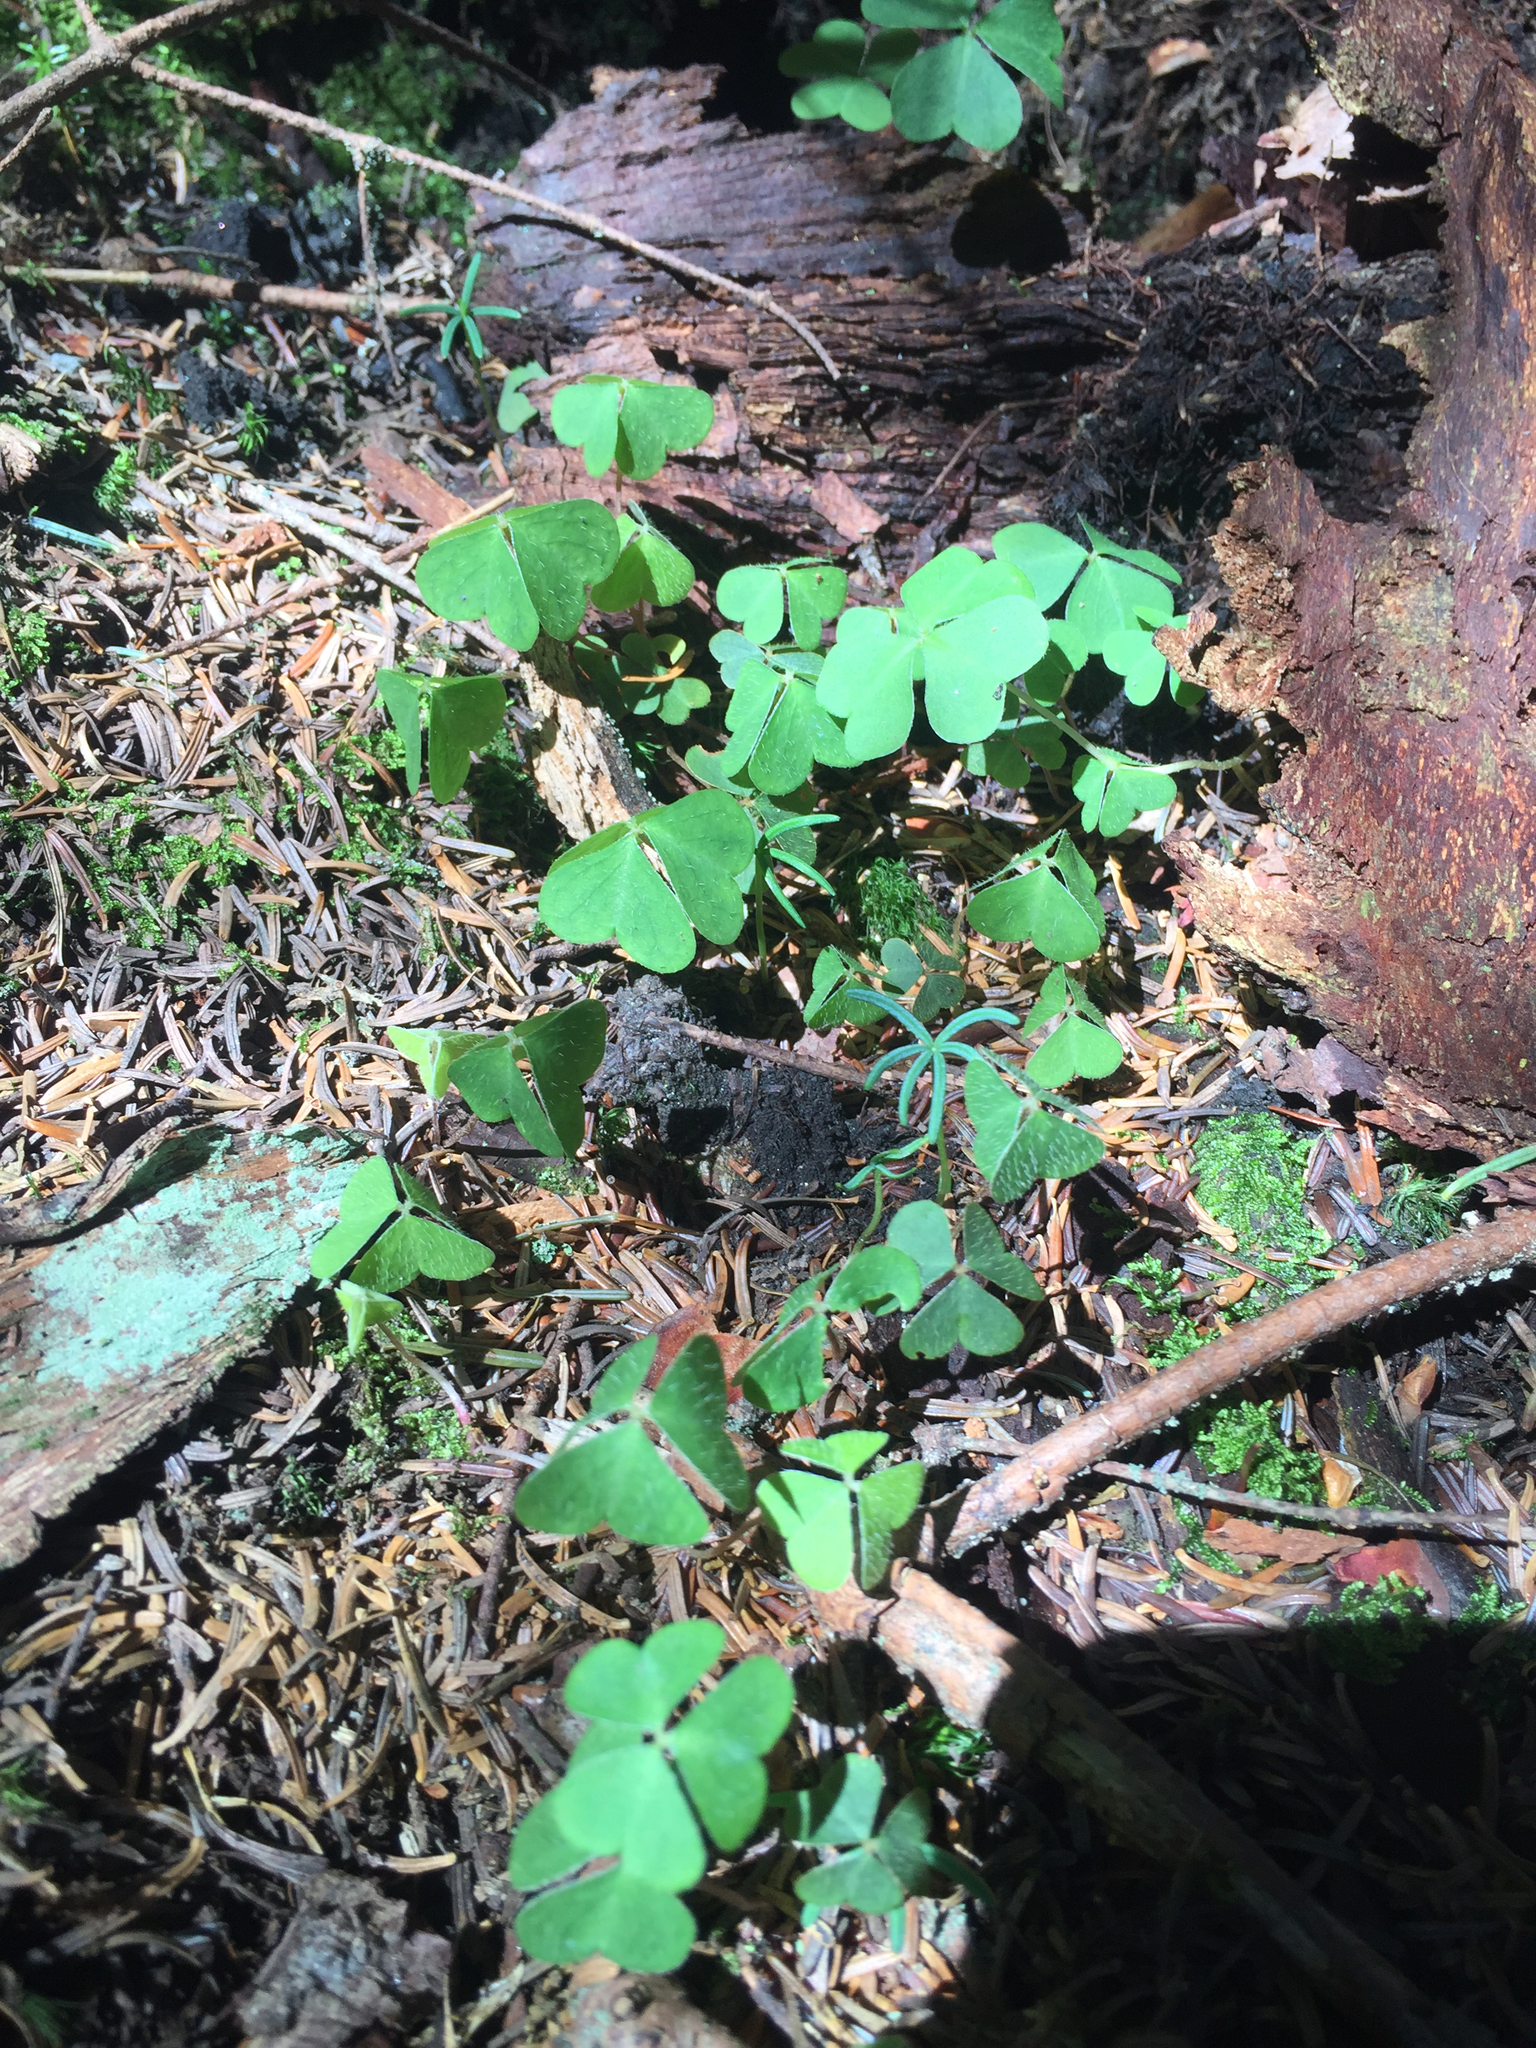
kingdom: Plantae
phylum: Tracheophyta
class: Magnoliopsida
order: Oxalidales
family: Oxalidaceae
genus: Oxalis
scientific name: Oxalis montana
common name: American wood-sorrel
